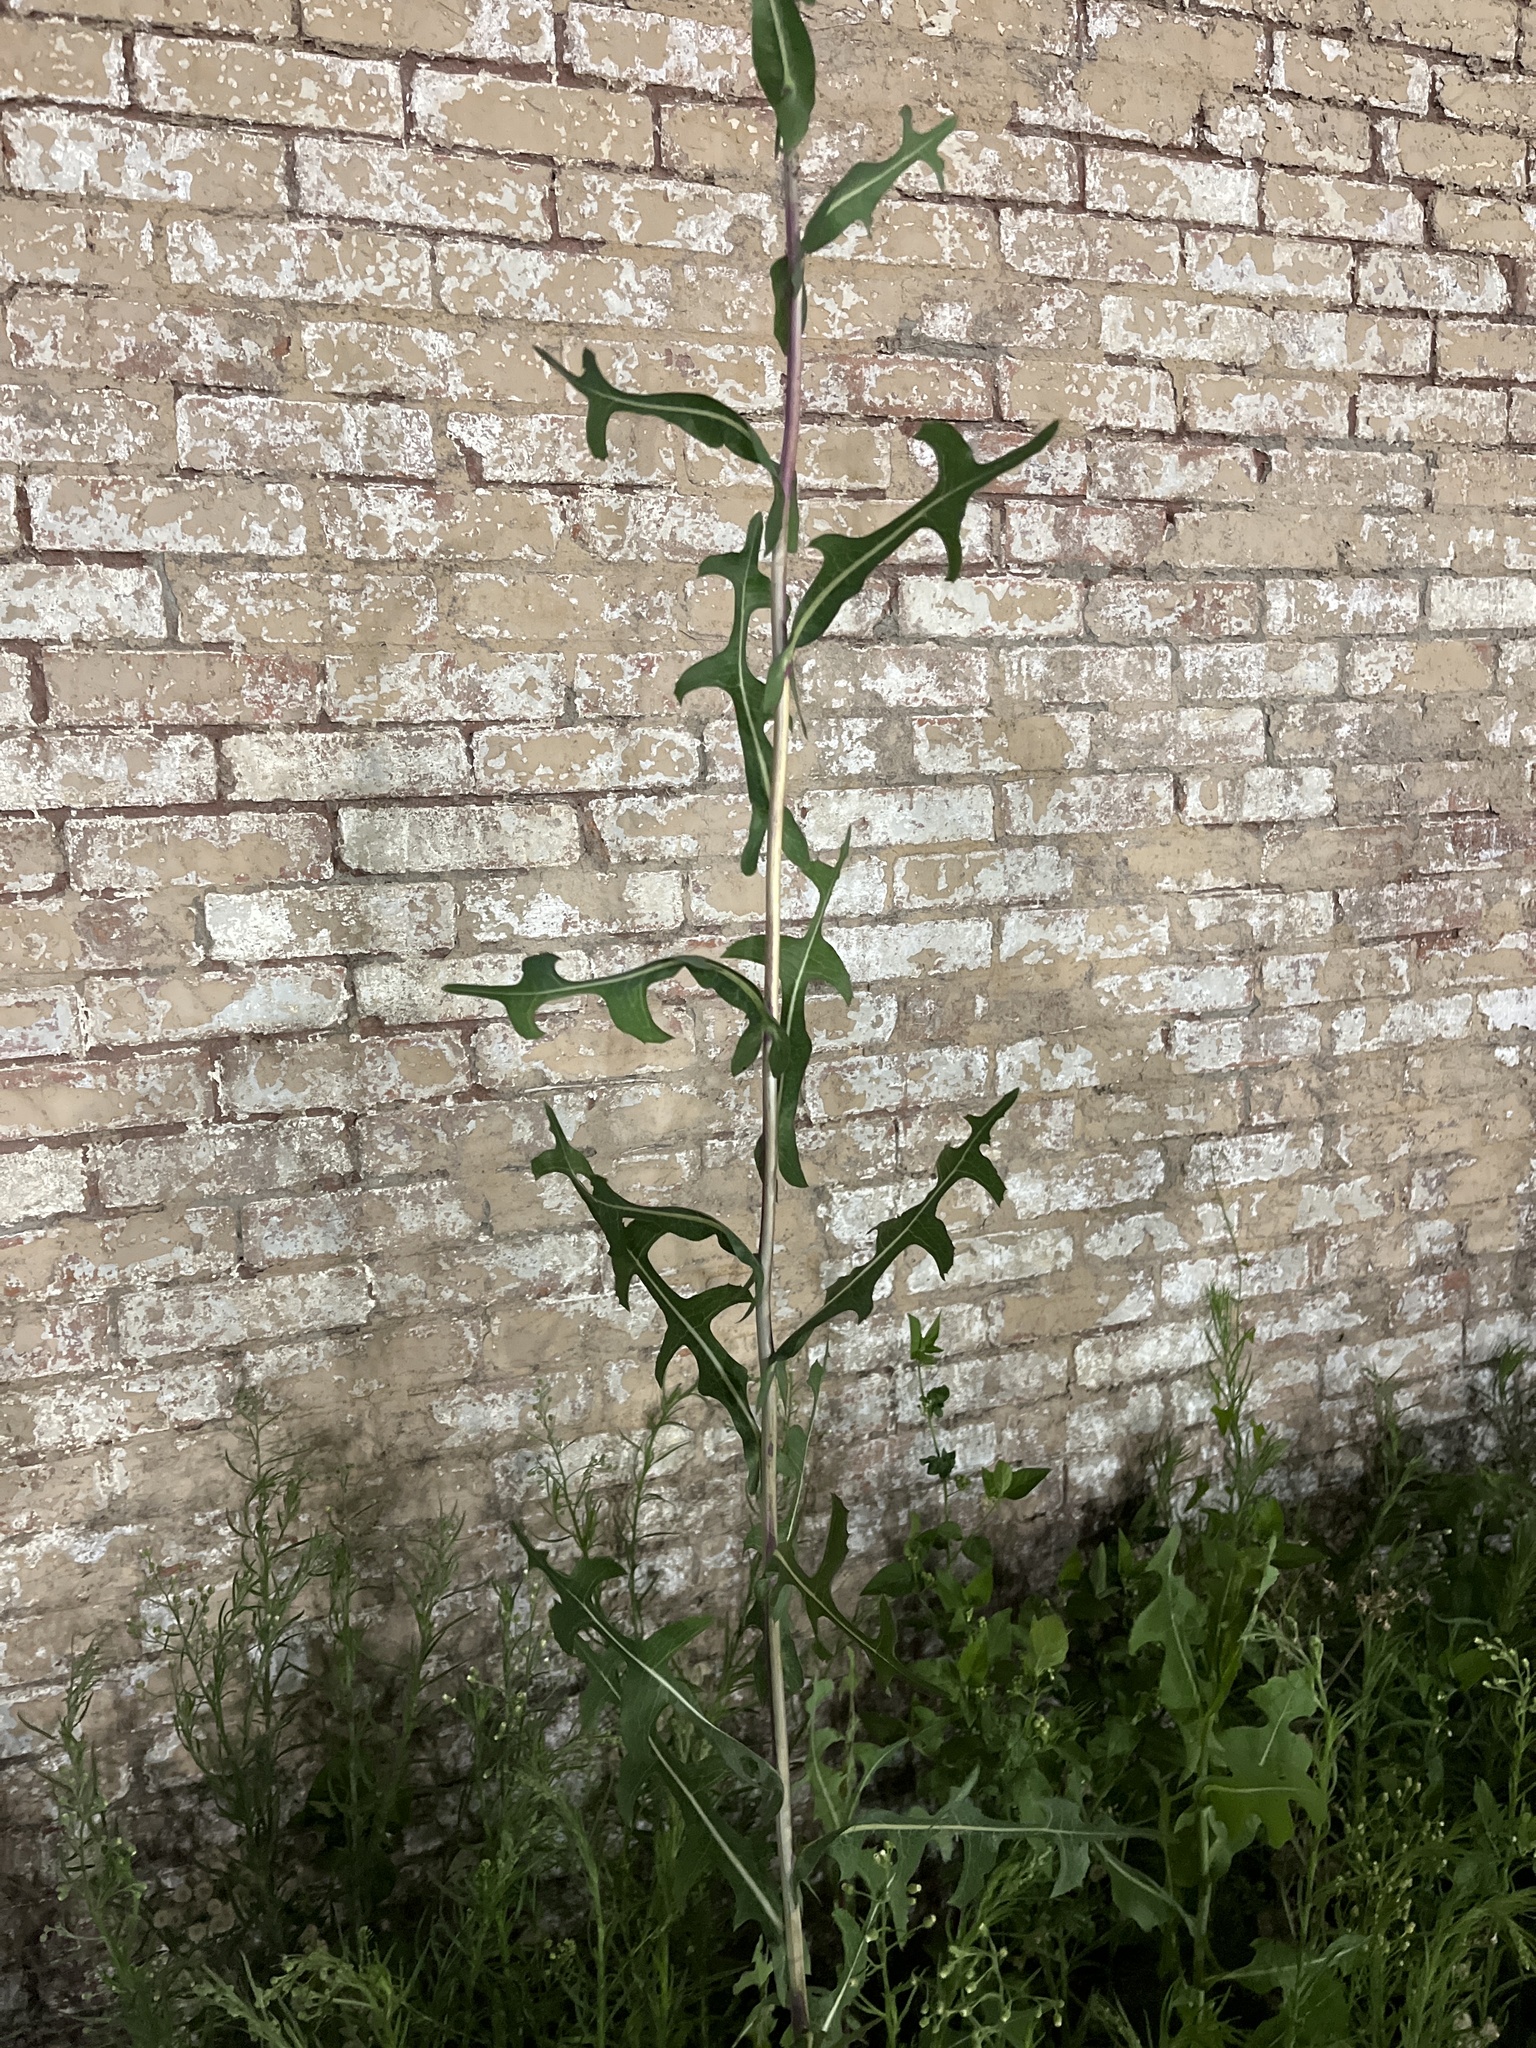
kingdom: Plantae
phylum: Tracheophyta
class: Magnoliopsida
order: Asterales
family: Asteraceae
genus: Lactuca
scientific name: Lactuca serriola
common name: Prickly lettuce
